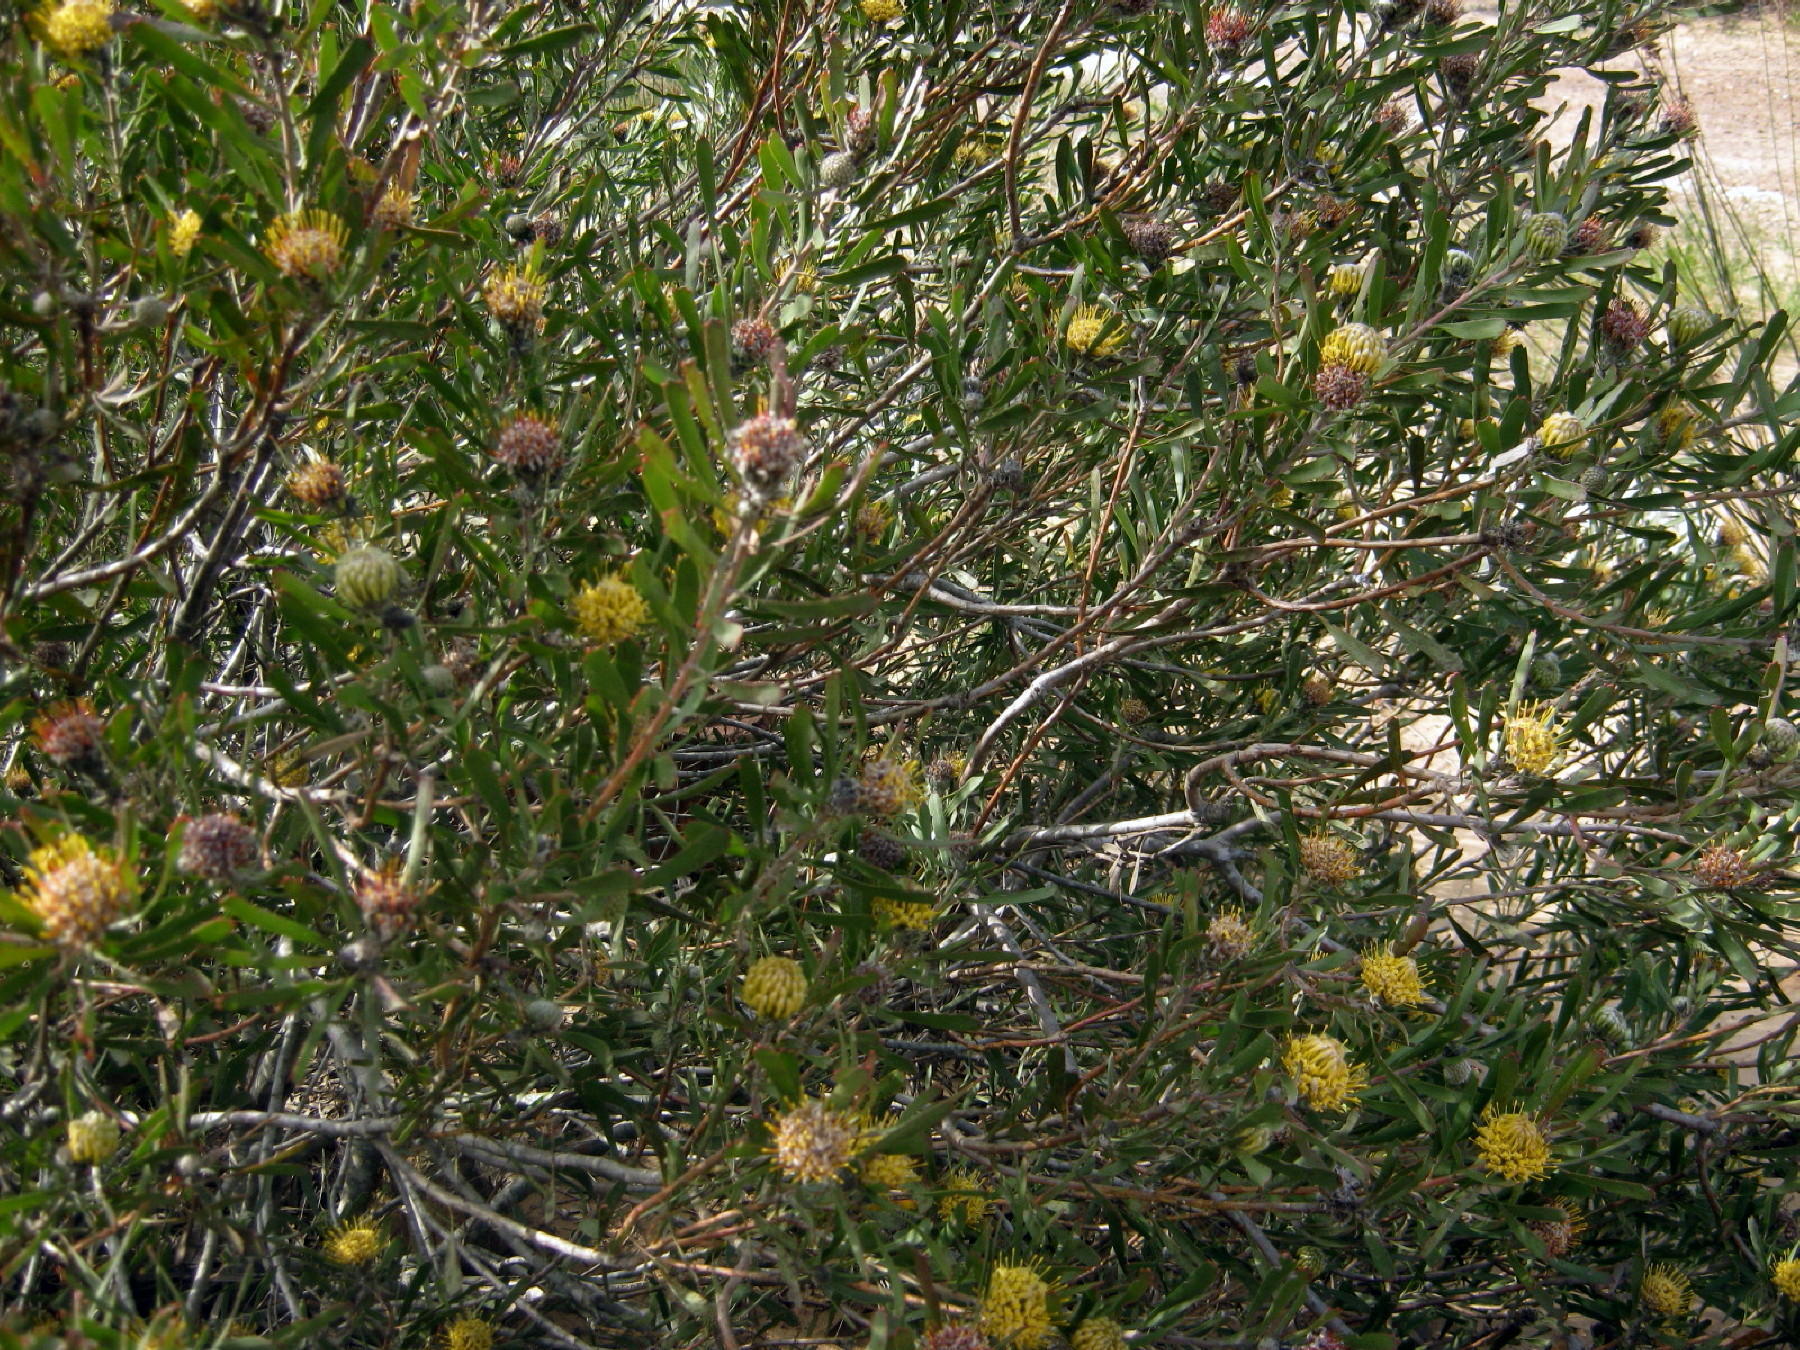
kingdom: Plantae
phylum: Tracheophyta
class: Magnoliopsida
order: Proteales
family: Proteaceae
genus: Leucospermum
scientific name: Leucospermum muirii
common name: Albertinia pincushion
